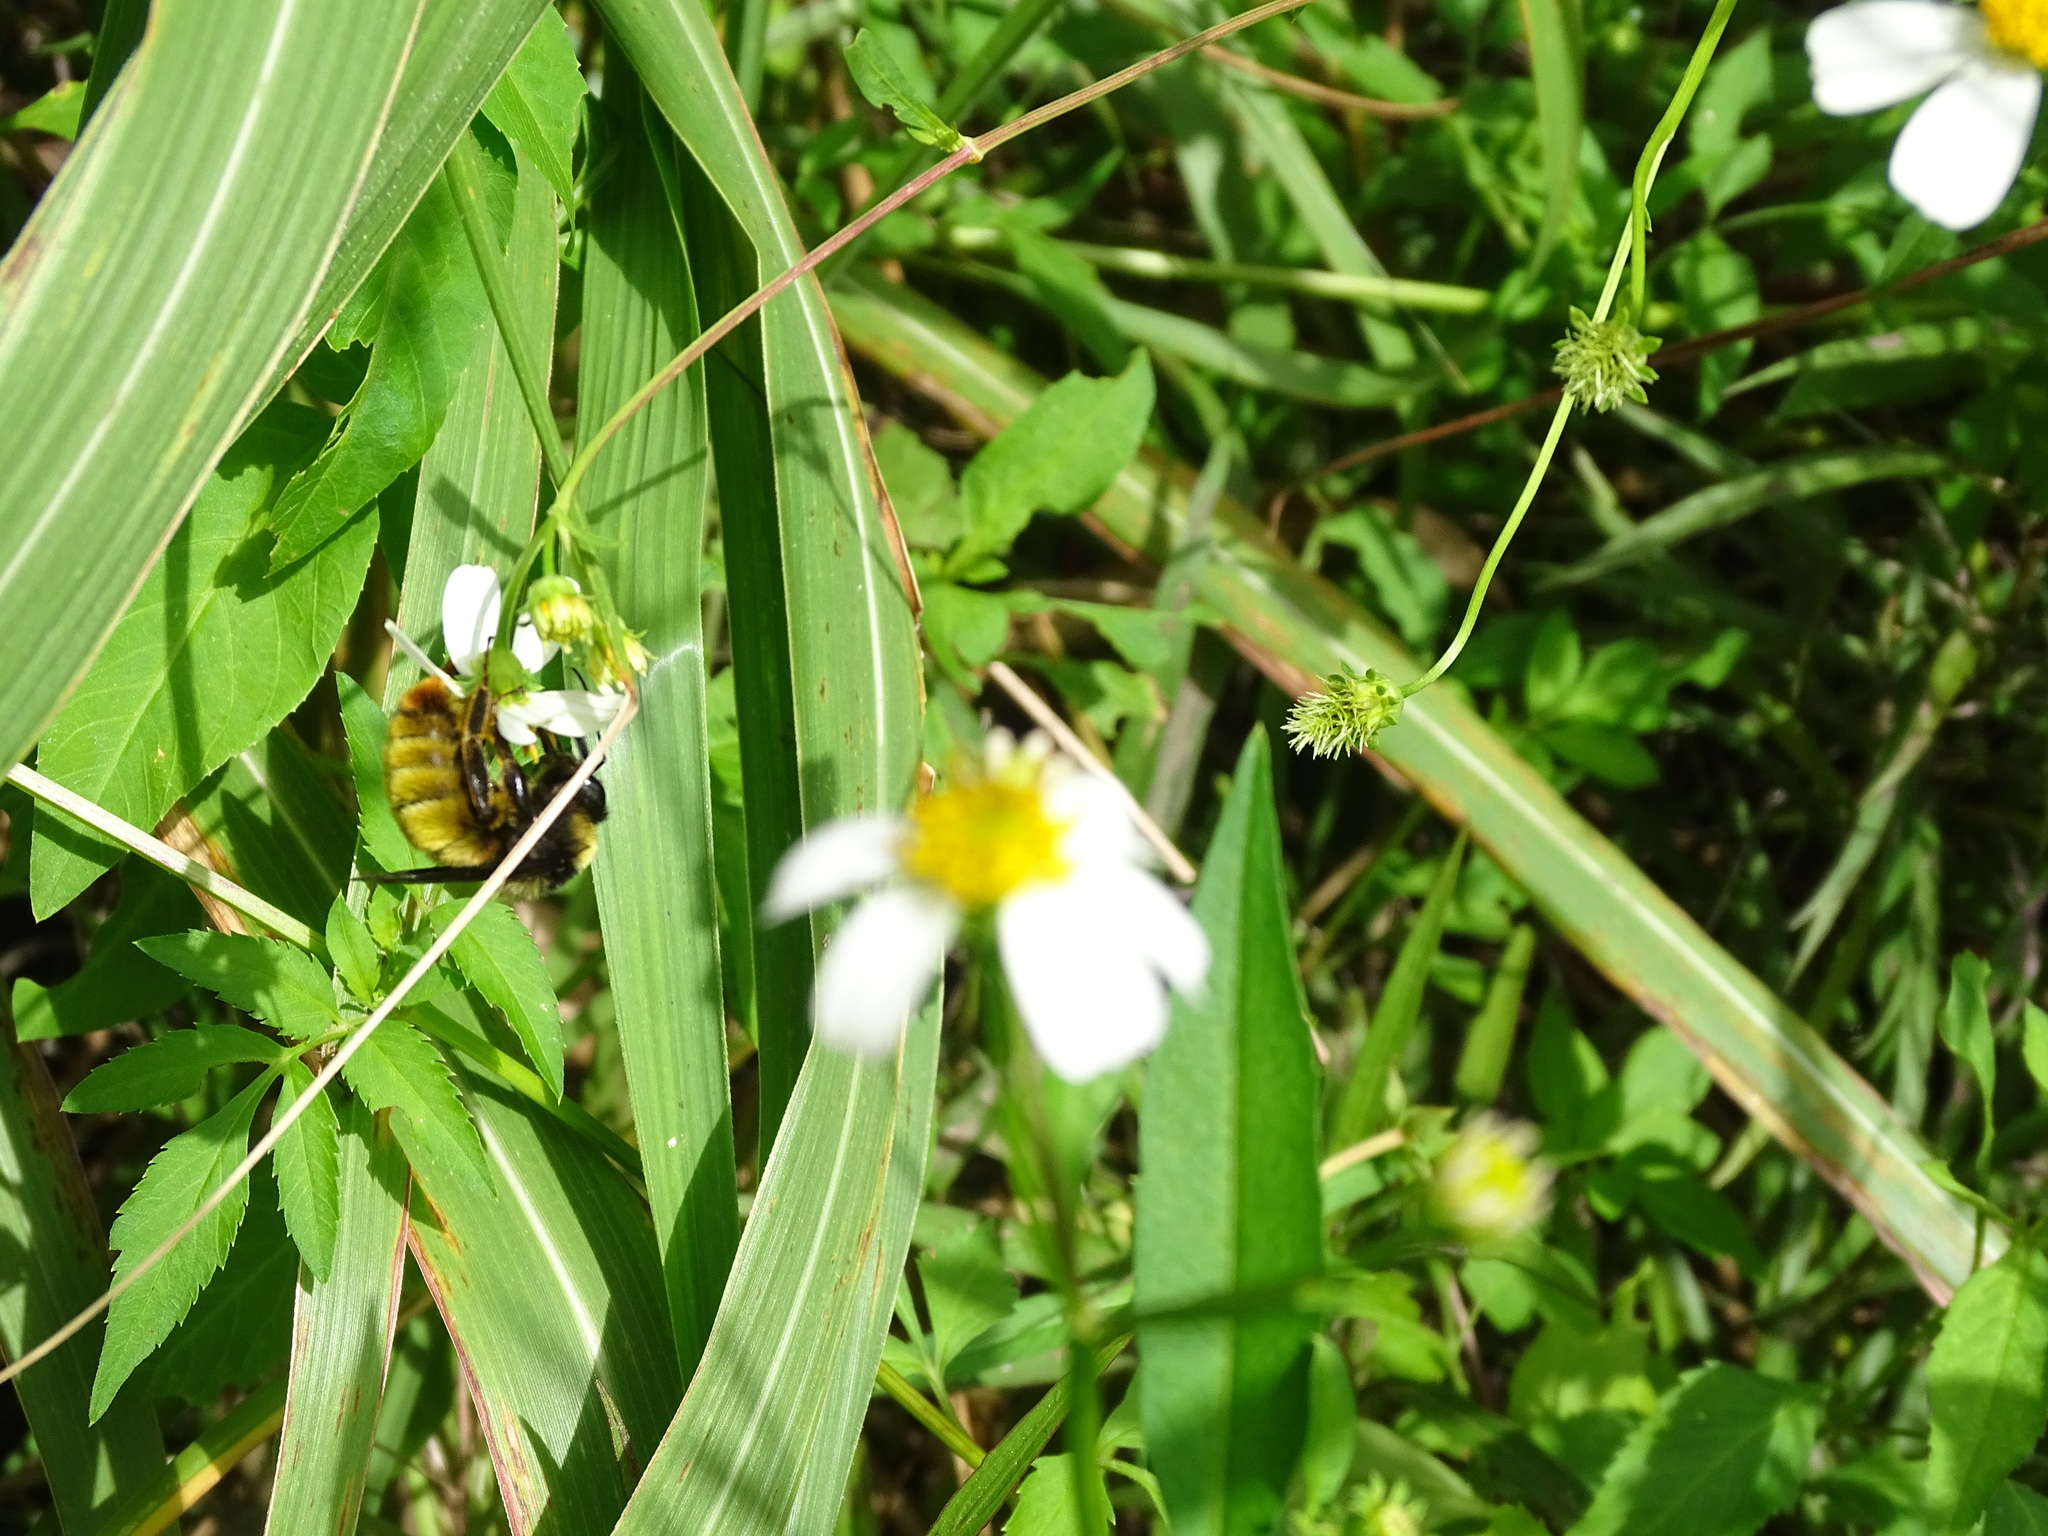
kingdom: Animalia
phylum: Arthropoda
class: Insecta
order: Hymenoptera
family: Apidae
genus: Bombus
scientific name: Bombus pensylvanicus
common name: Bumble bee
